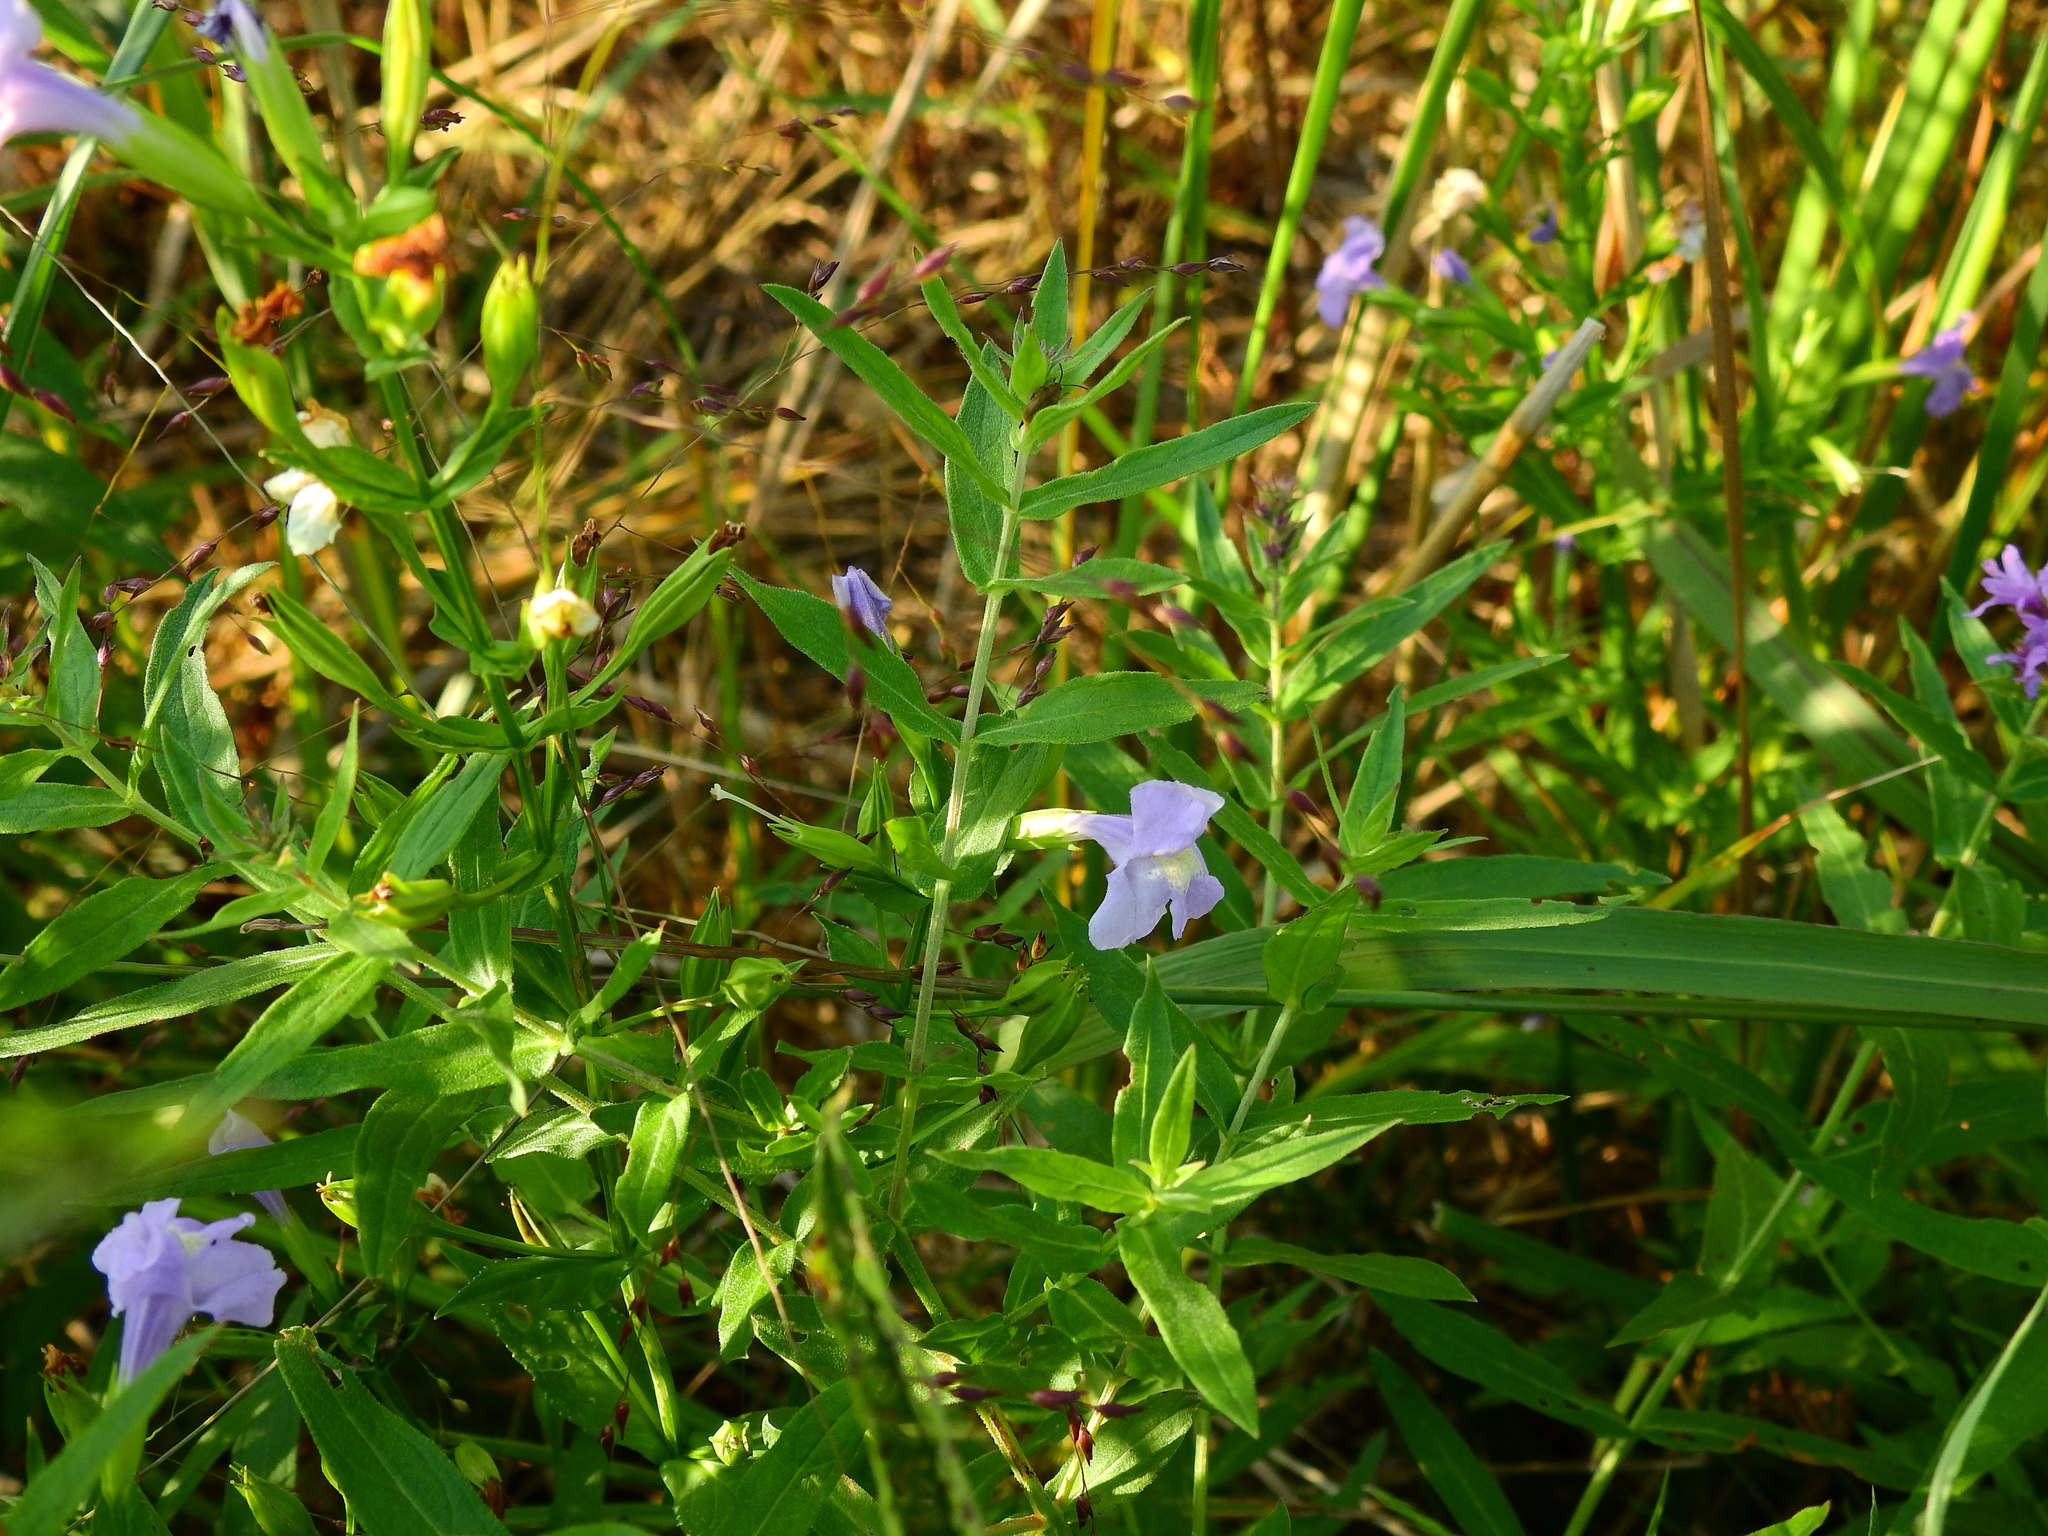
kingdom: Plantae
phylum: Tracheophyta
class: Magnoliopsida
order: Lamiales
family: Phrymaceae
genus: Mimulus
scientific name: Mimulus ringens
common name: Allegheny monkeyflower
